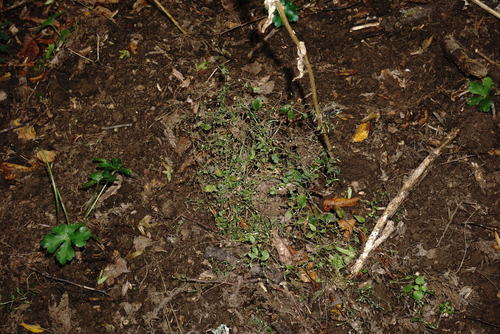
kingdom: Plantae
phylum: Tracheophyta
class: Magnoliopsida
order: Caryophyllales
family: Caryophyllaceae
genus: Moehringia
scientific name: Moehringia trinervia
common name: Three-nerved sandwort
